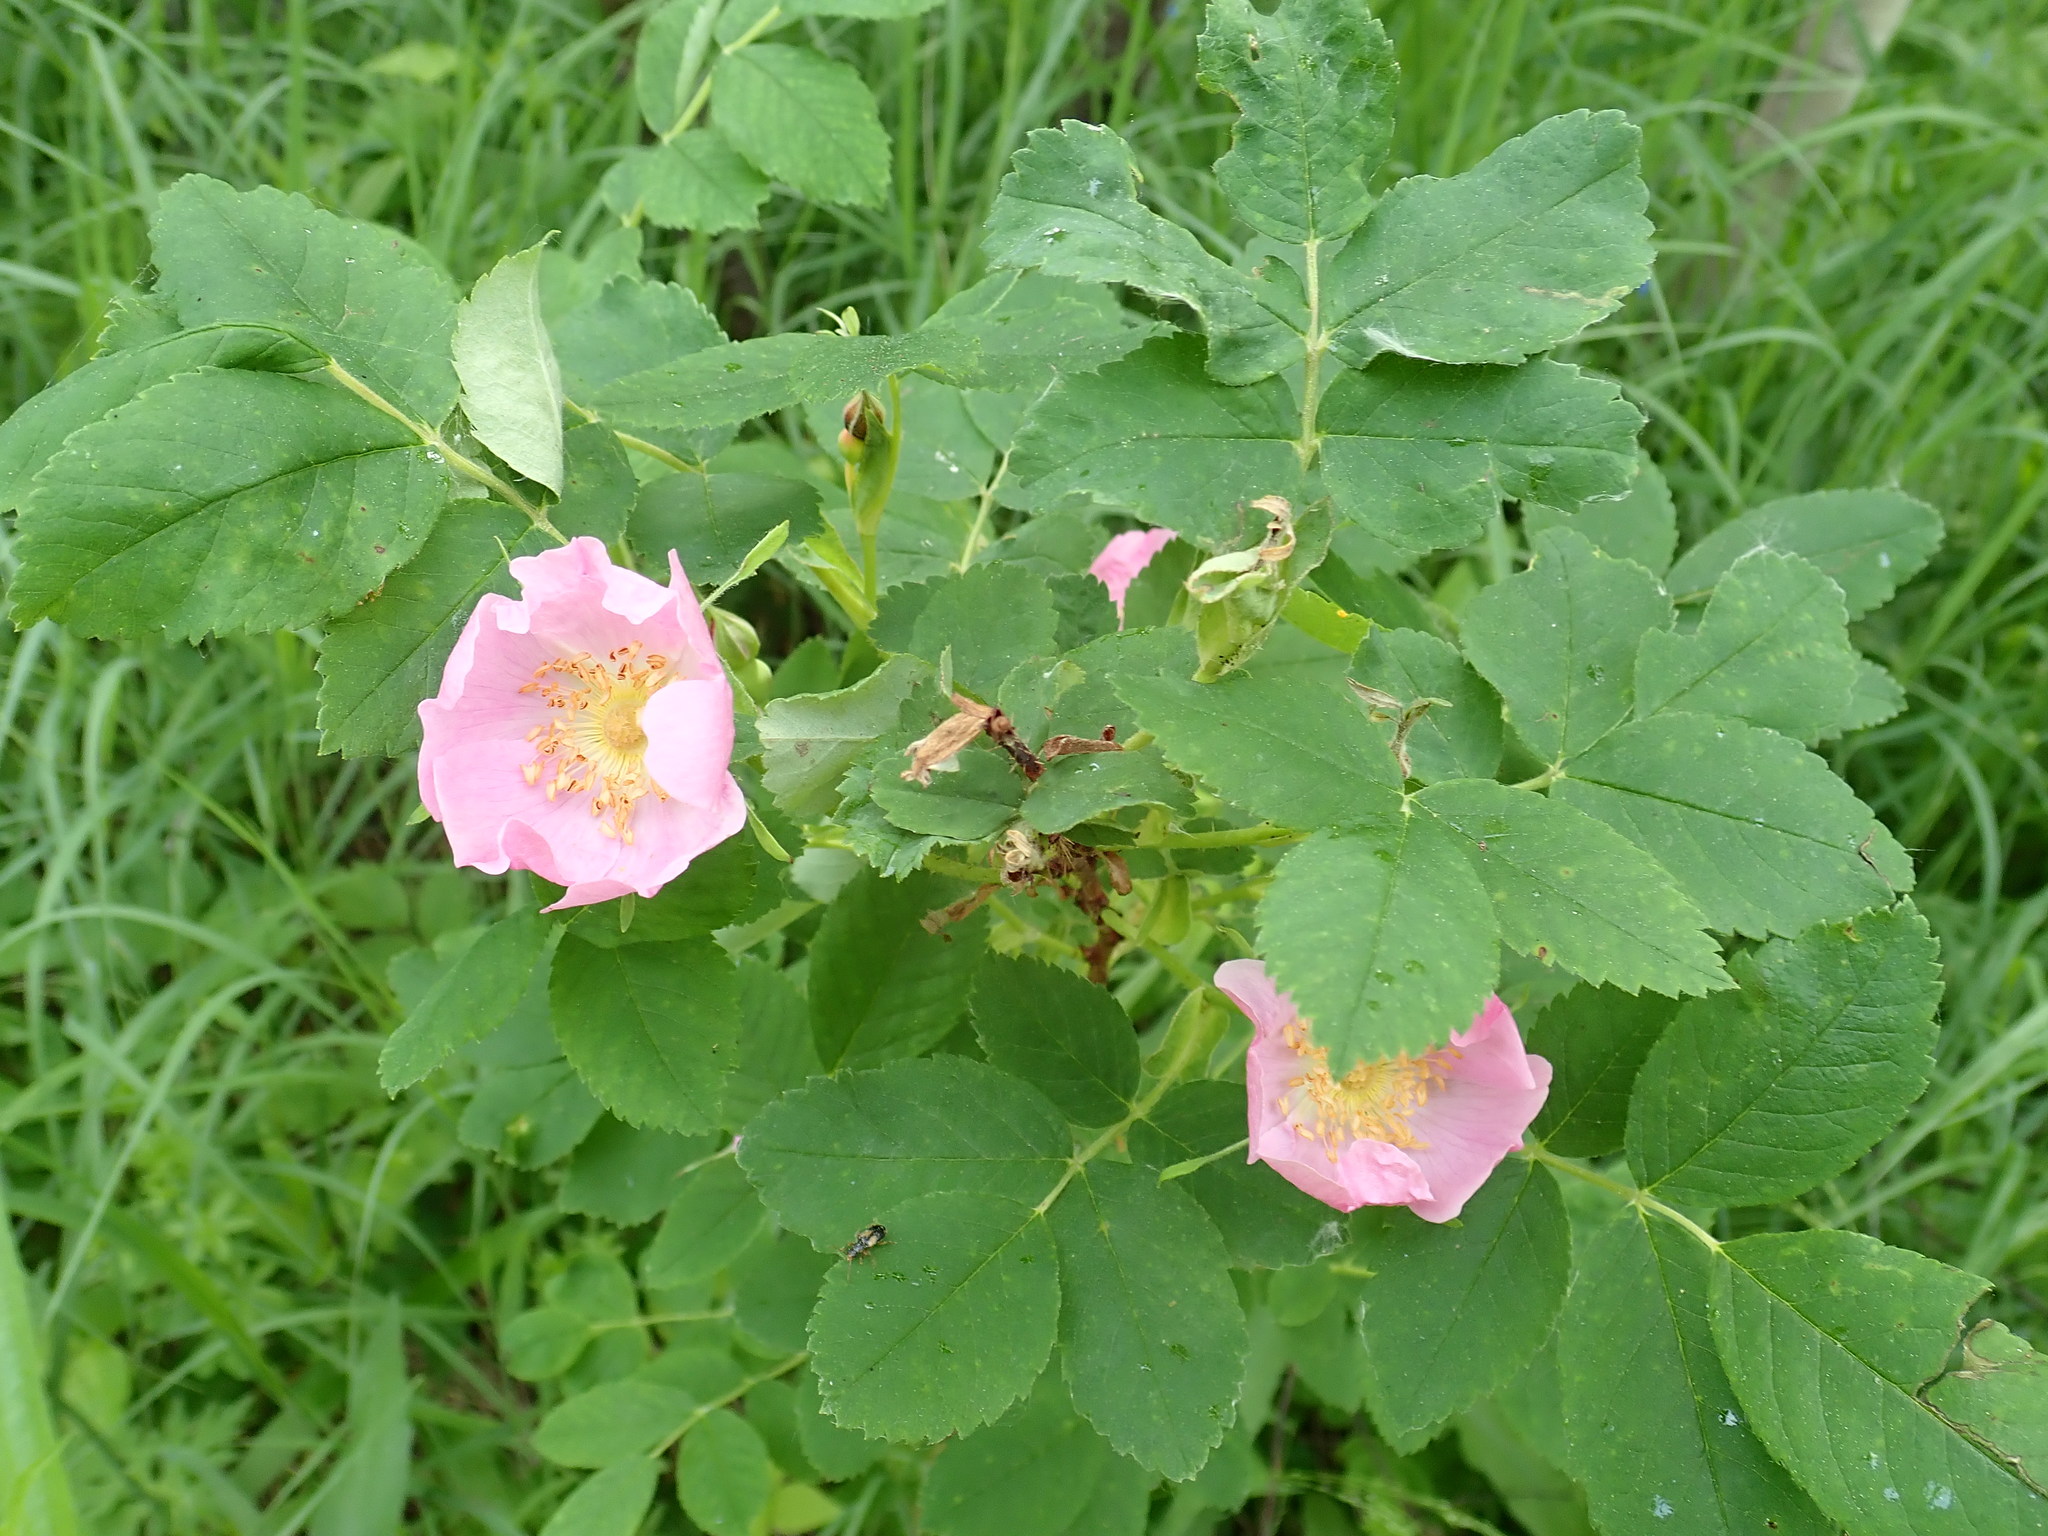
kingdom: Plantae
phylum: Tracheophyta
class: Magnoliopsida
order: Rosales
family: Rosaceae
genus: Rosa
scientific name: Rosa acicularis
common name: Prickly rose
